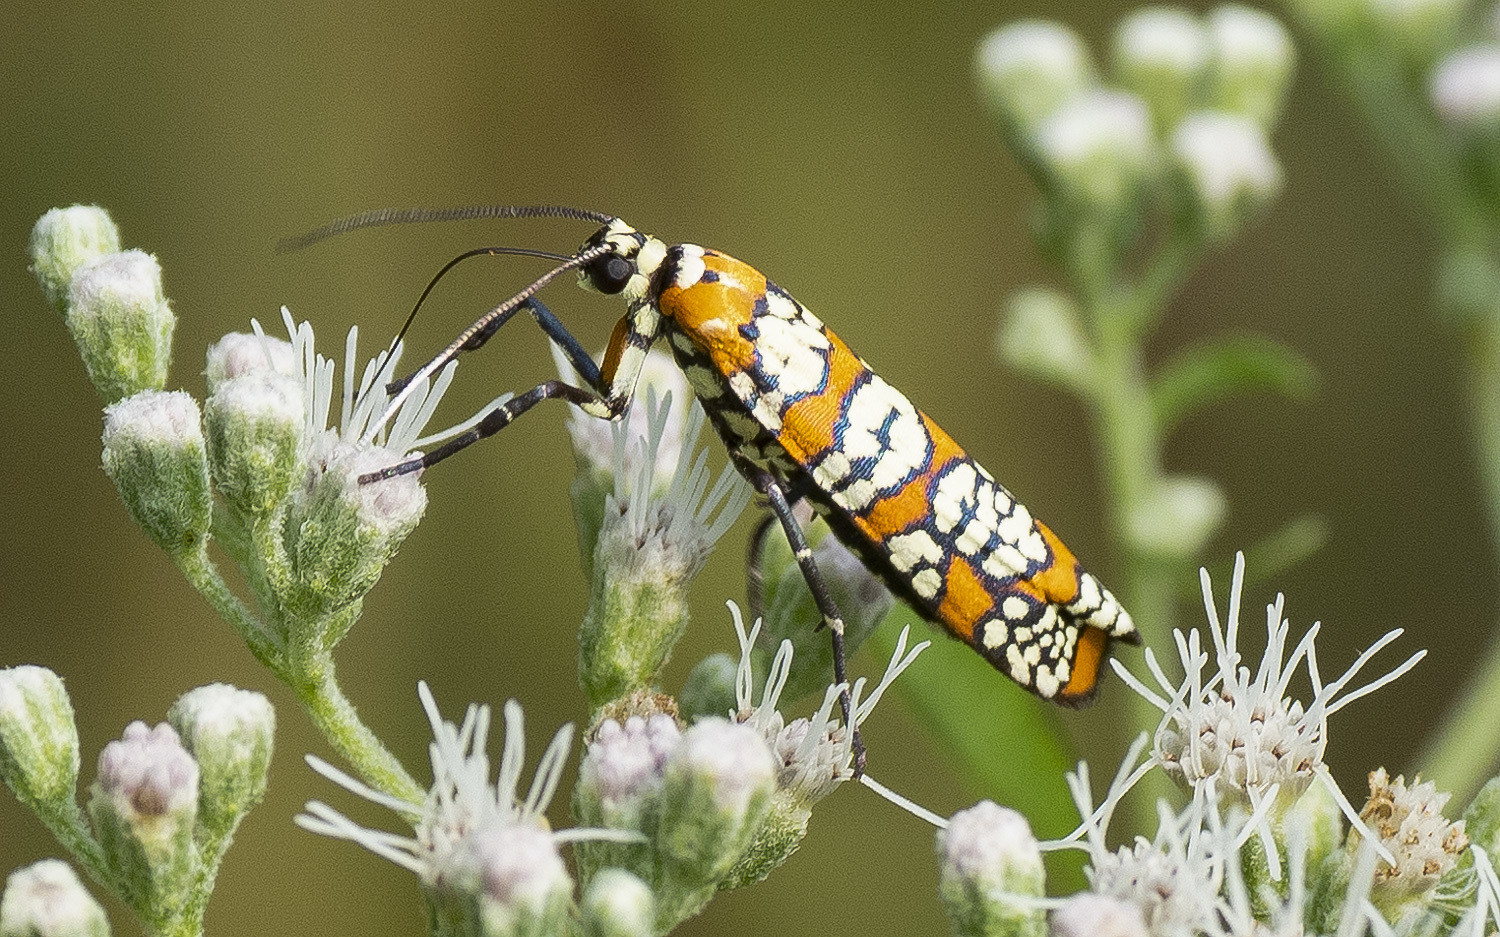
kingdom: Animalia
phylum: Arthropoda
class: Insecta
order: Lepidoptera
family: Attevidae
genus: Atteva
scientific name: Atteva punctella
